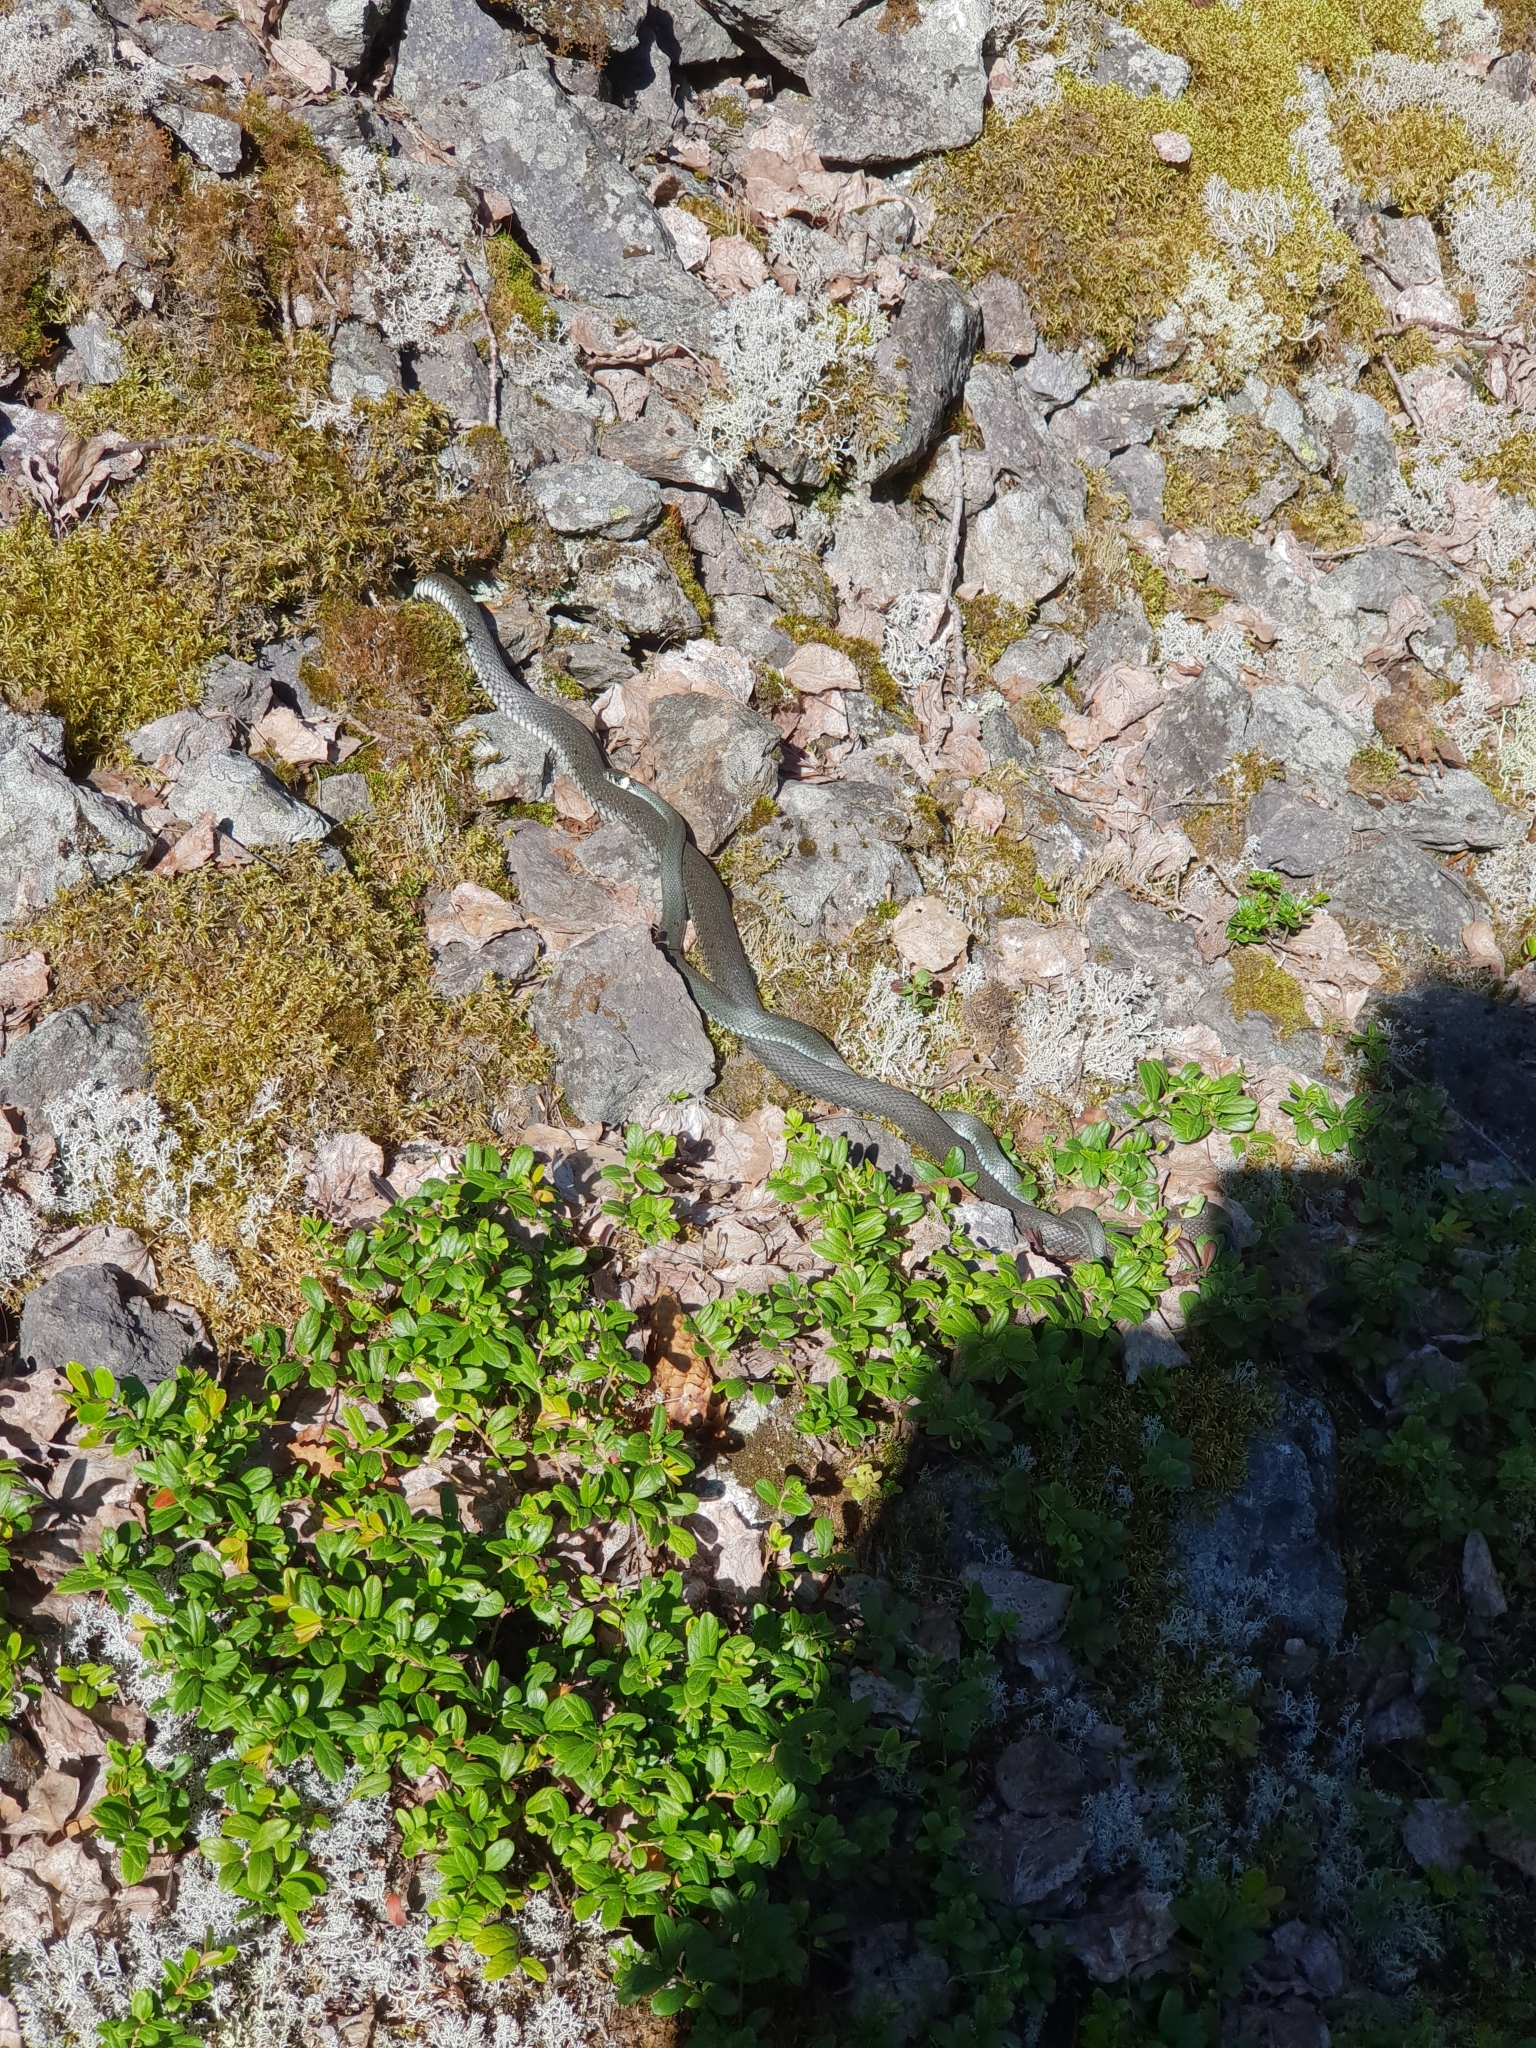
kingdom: Animalia
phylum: Chordata
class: Squamata
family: Colubridae
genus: Natrix
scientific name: Natrix natrix
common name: Grass snake
